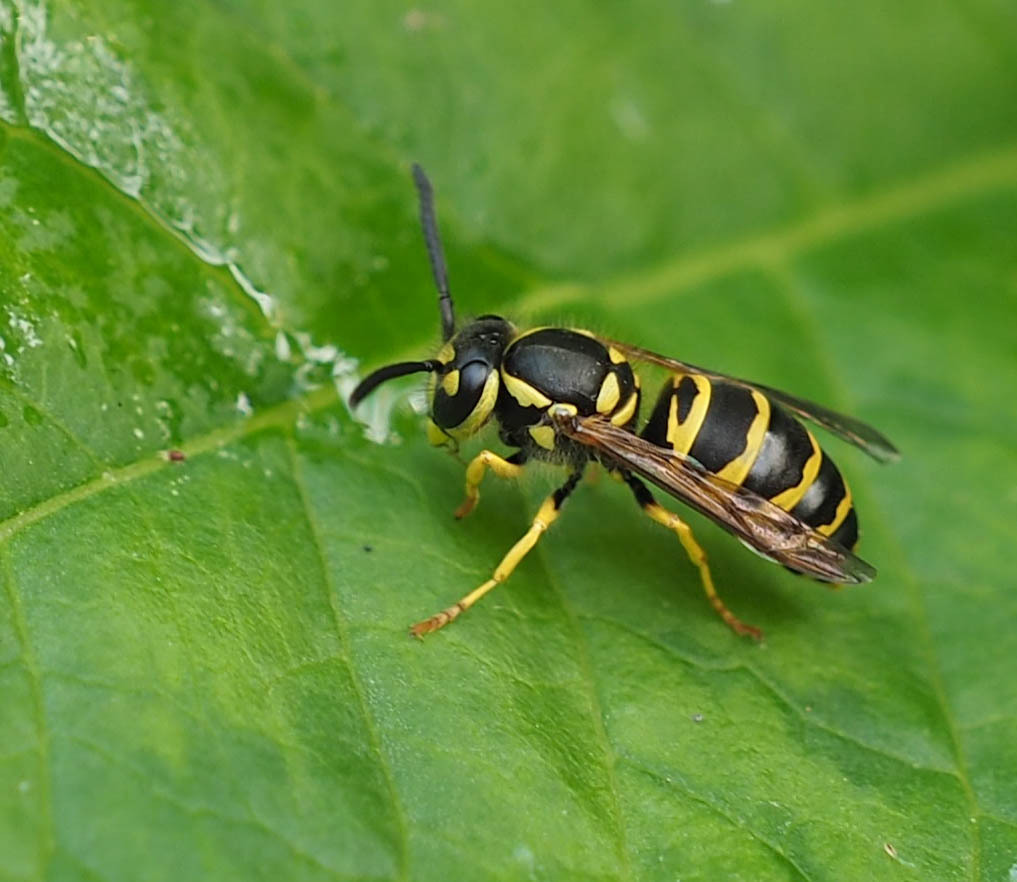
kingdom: Animalia
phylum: Arthropoda
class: Insecta
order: Hymenoptera
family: Vespidae
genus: Vespula
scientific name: Vespula maculifrons
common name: Eastern yellowjacket
